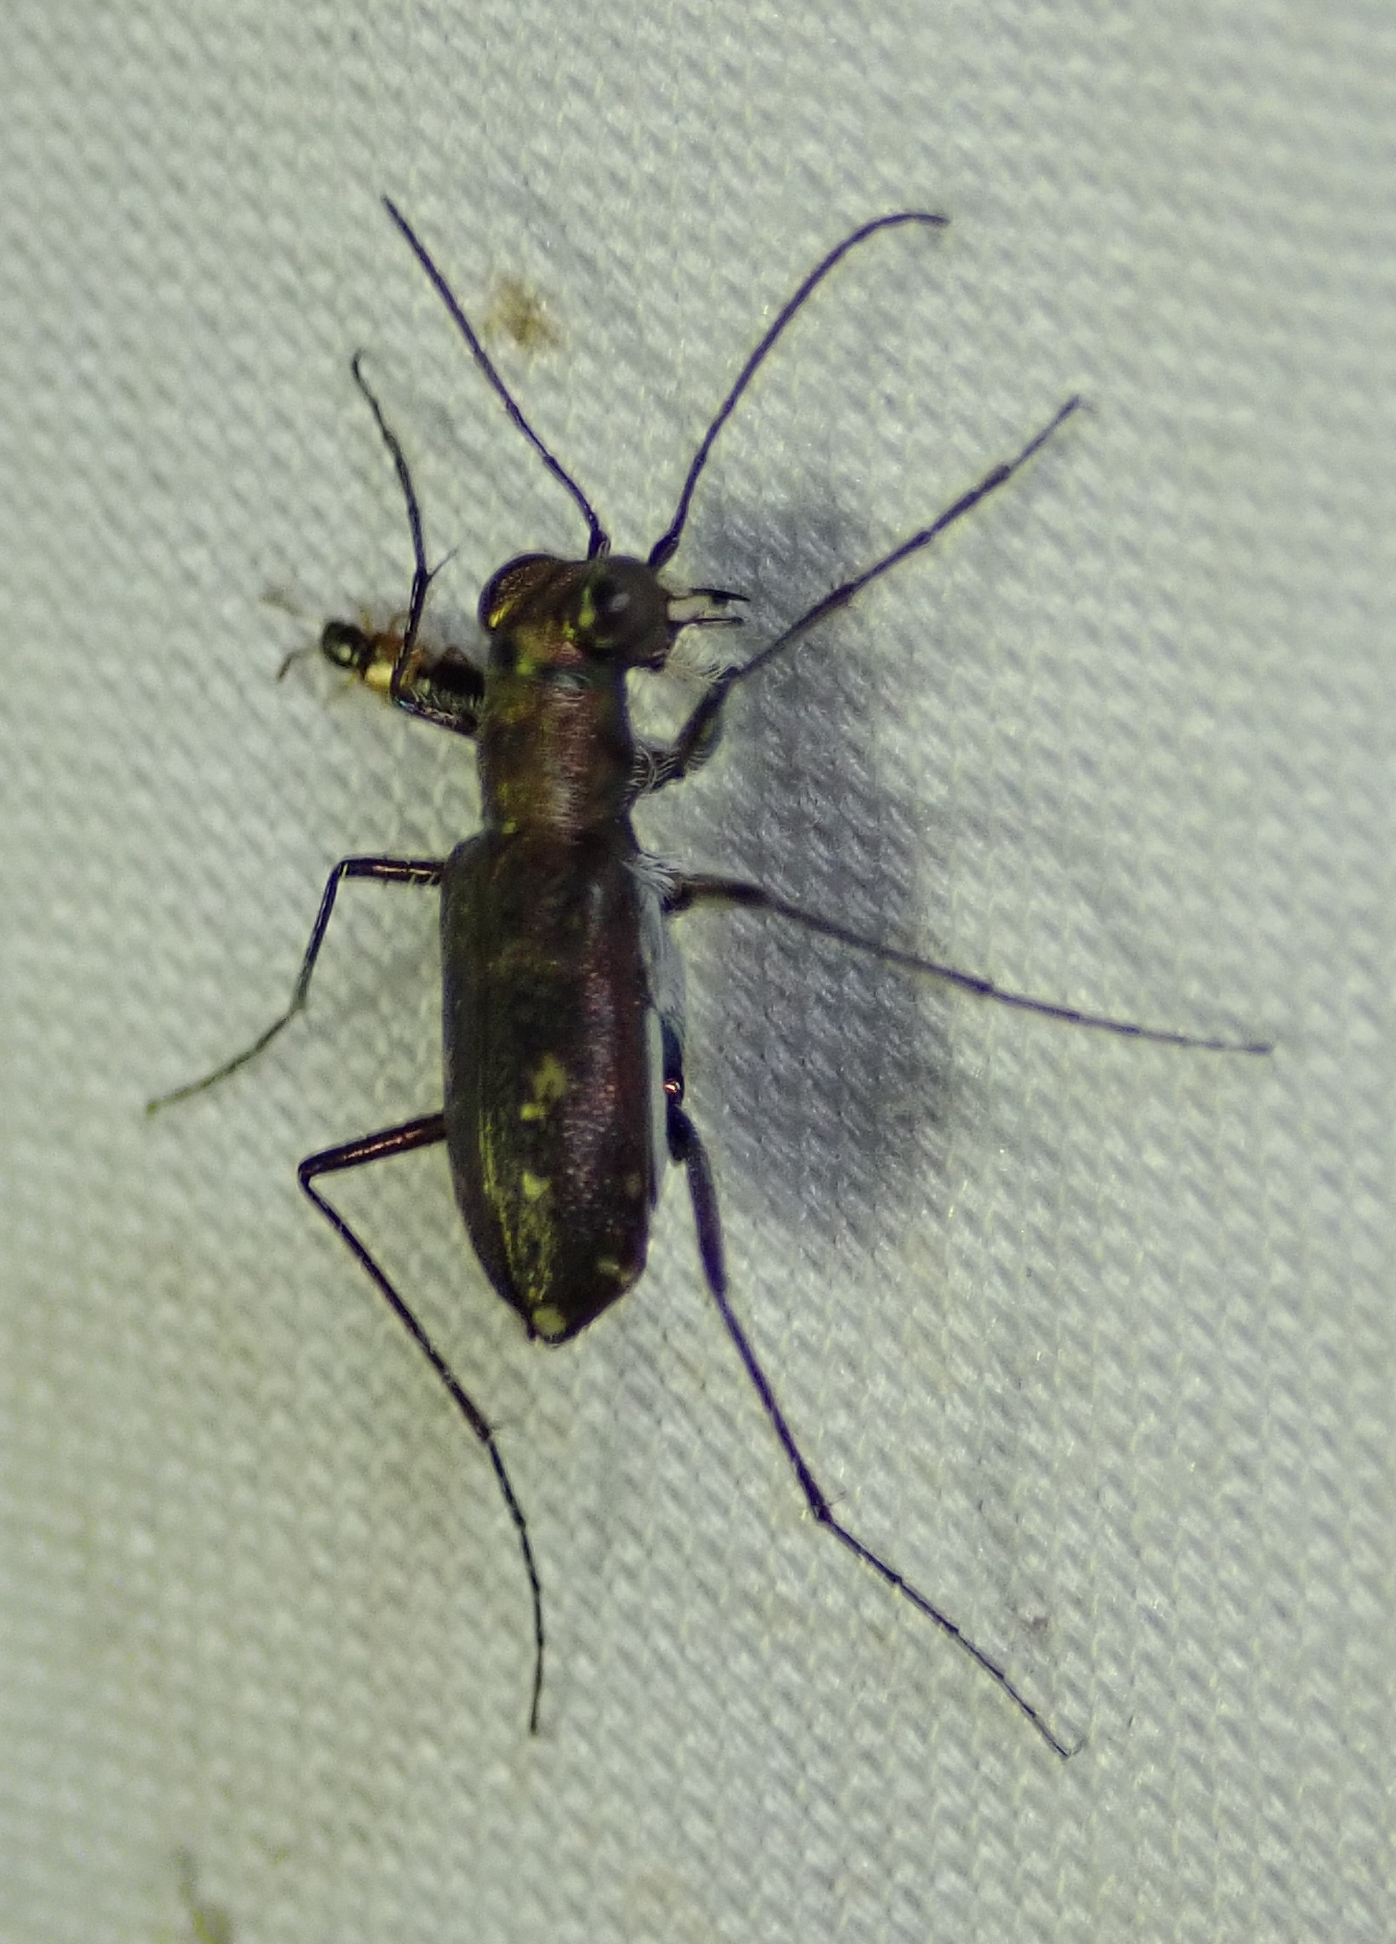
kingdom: Animalia
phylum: Arthropoda
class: Insecta
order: Coleoptera
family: Carabidae
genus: Cylindera
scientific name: Cylindera dissimilis
